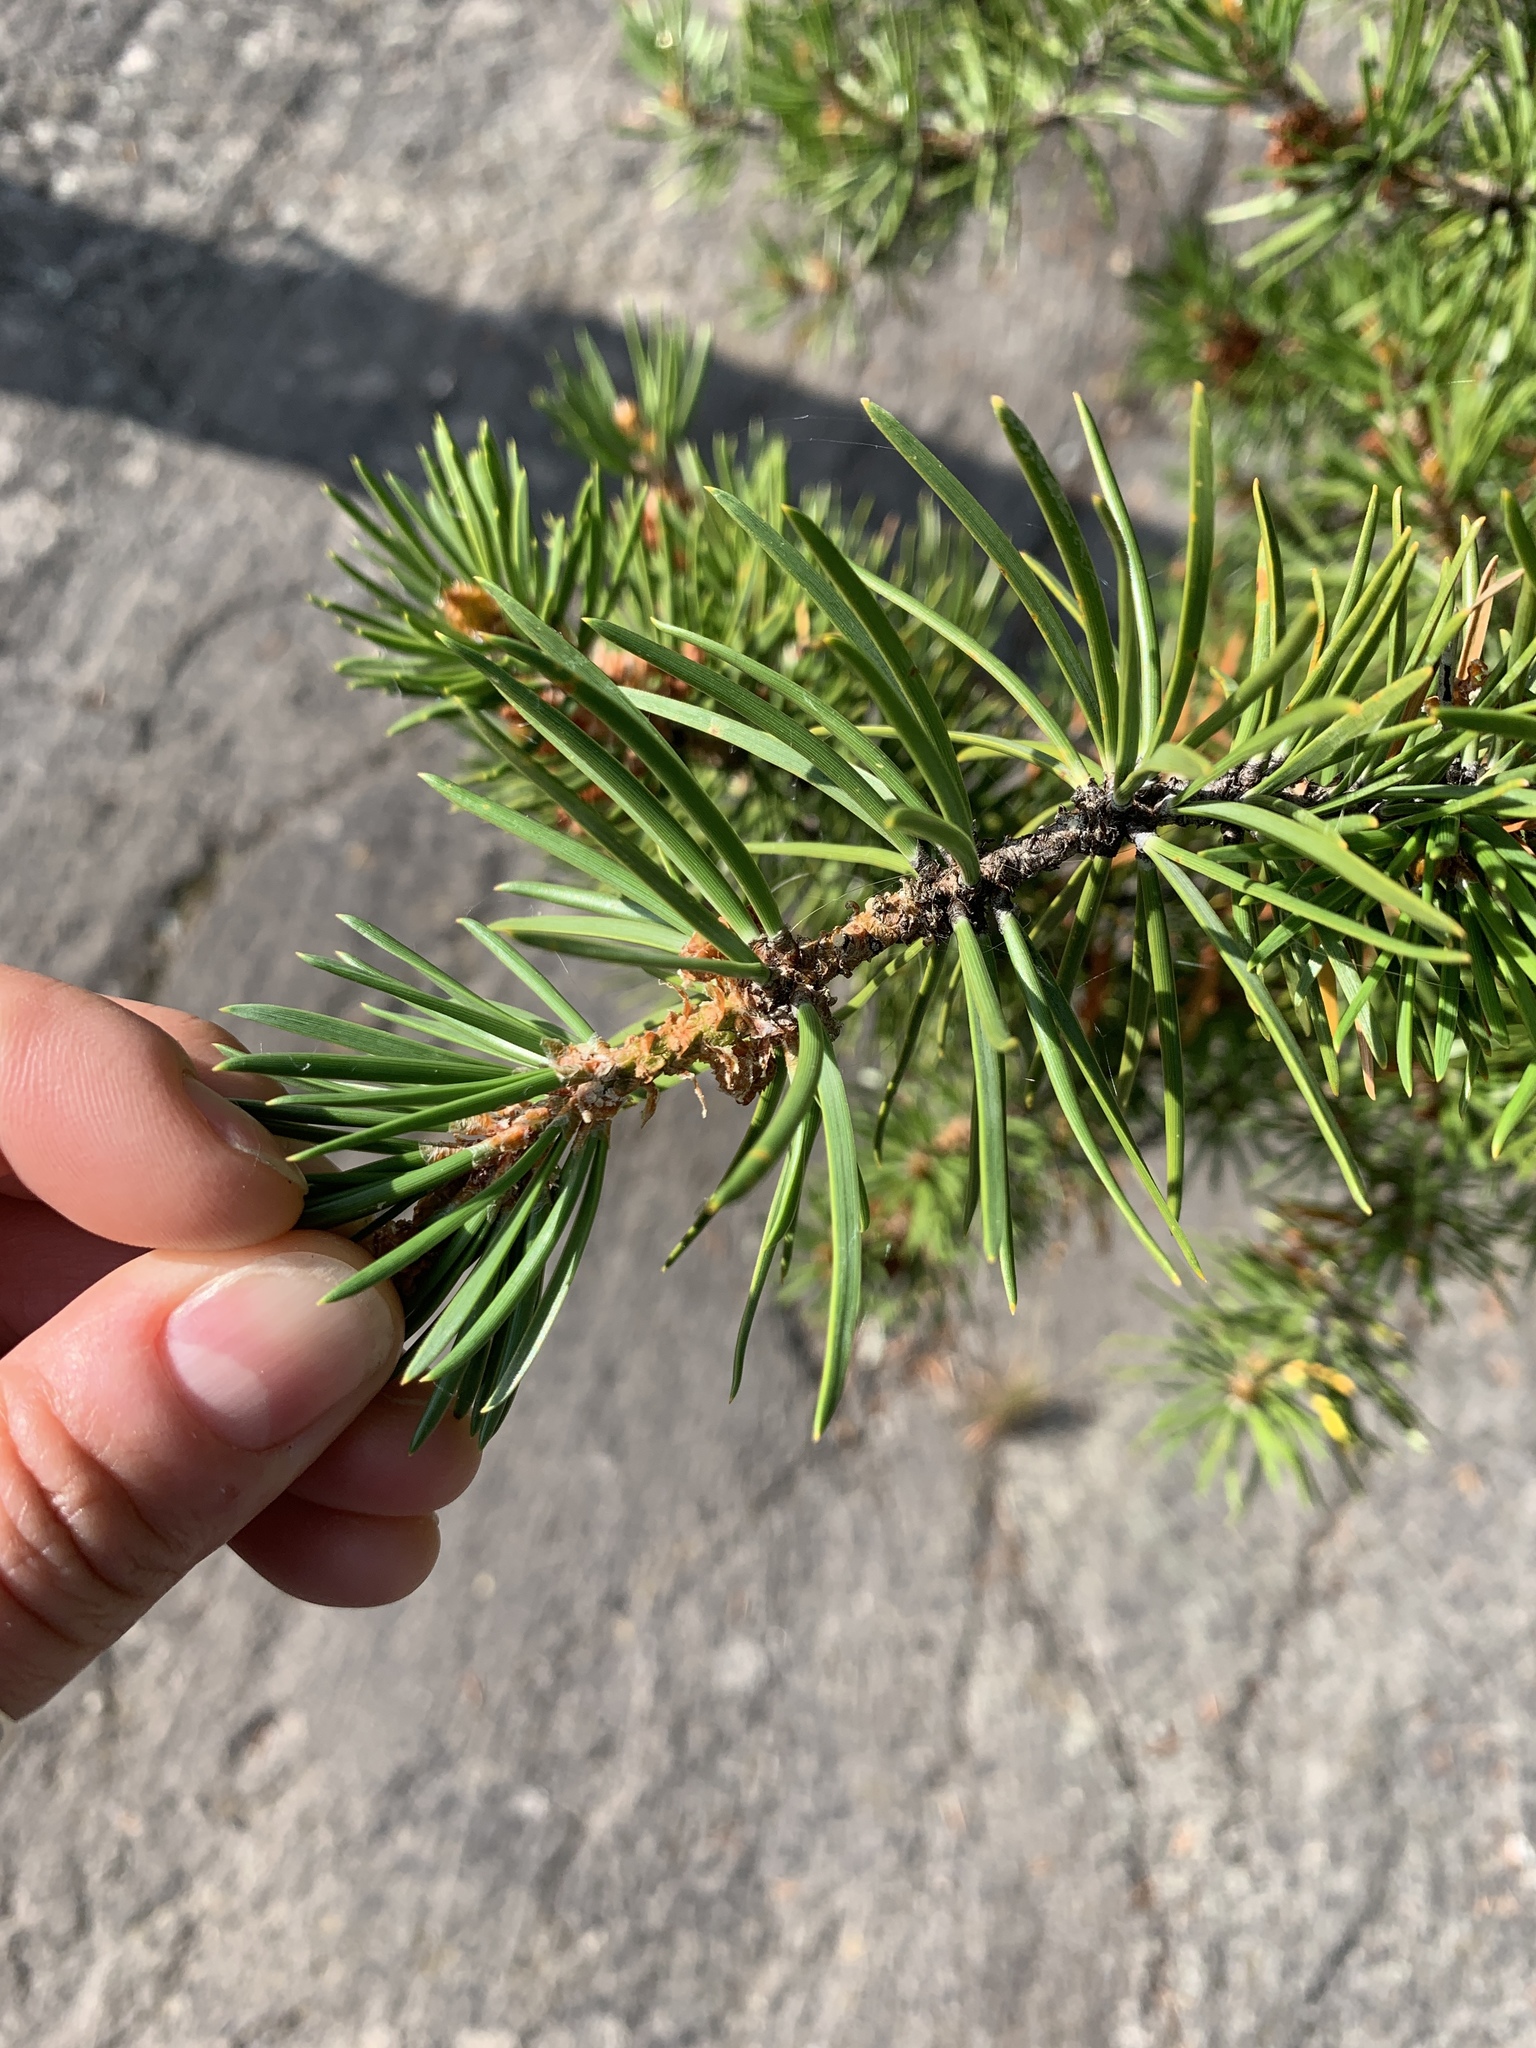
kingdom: Plantae
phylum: Tracheophyta
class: Pinopsida
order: Pinales
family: Pinaceae
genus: Pinus
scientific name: Pinus banksiana
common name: Jack pine
